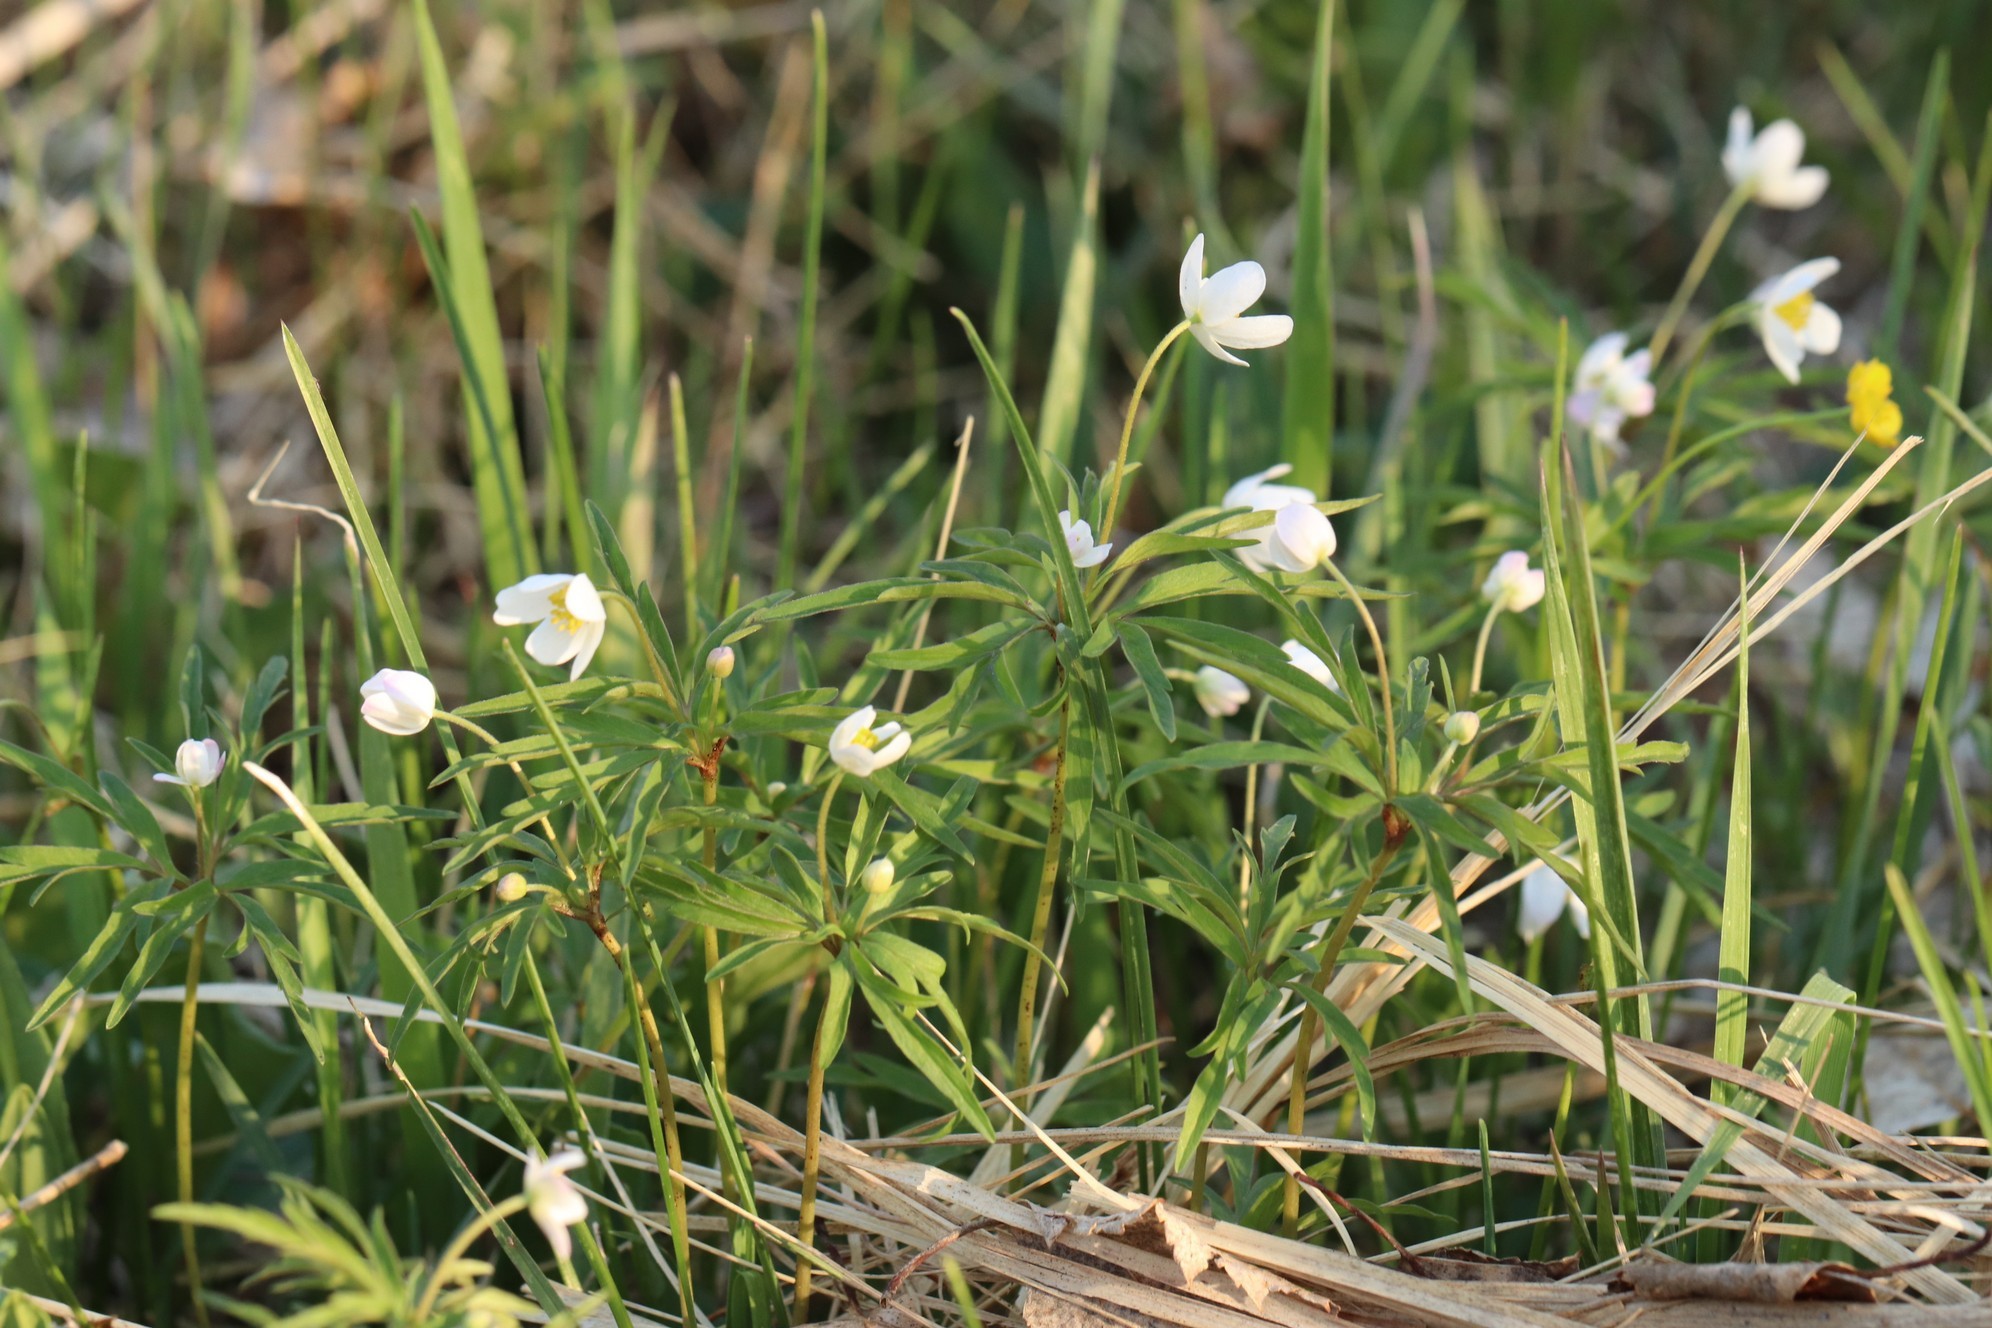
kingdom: Plantae
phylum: Tracheophyta
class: Magnoliopsida
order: Ranunculales
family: Ranunculaceae
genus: Anemone
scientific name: Anemone caerulea
